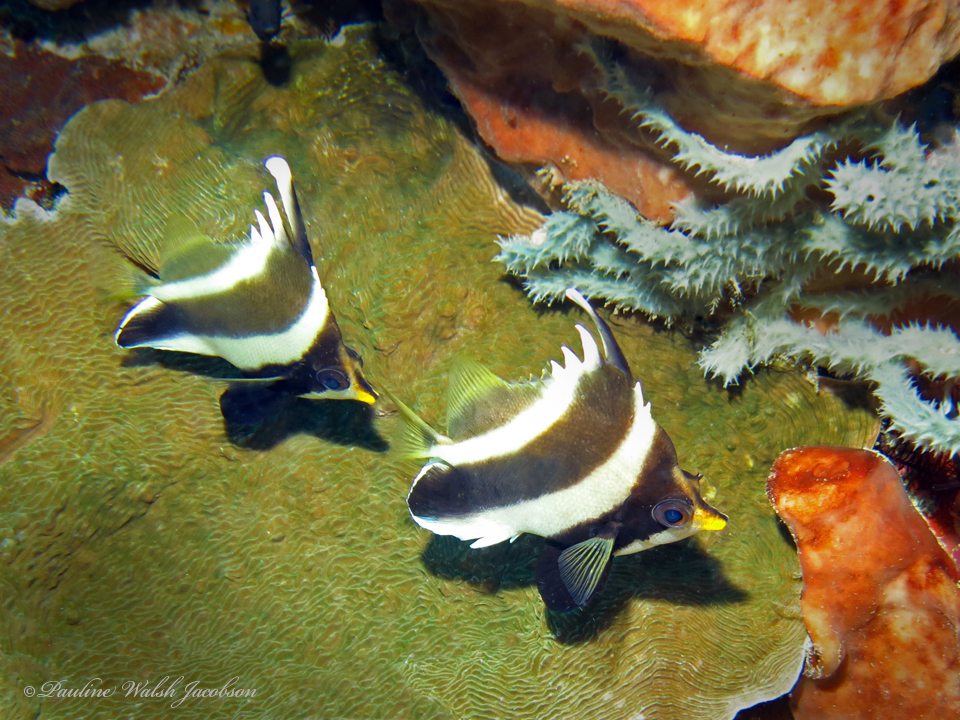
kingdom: Animalia
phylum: Chordata
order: Perciformes
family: Chaetodontidae
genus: Heniochus
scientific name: Heniochus chrysostomus
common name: Horned bannerfish
